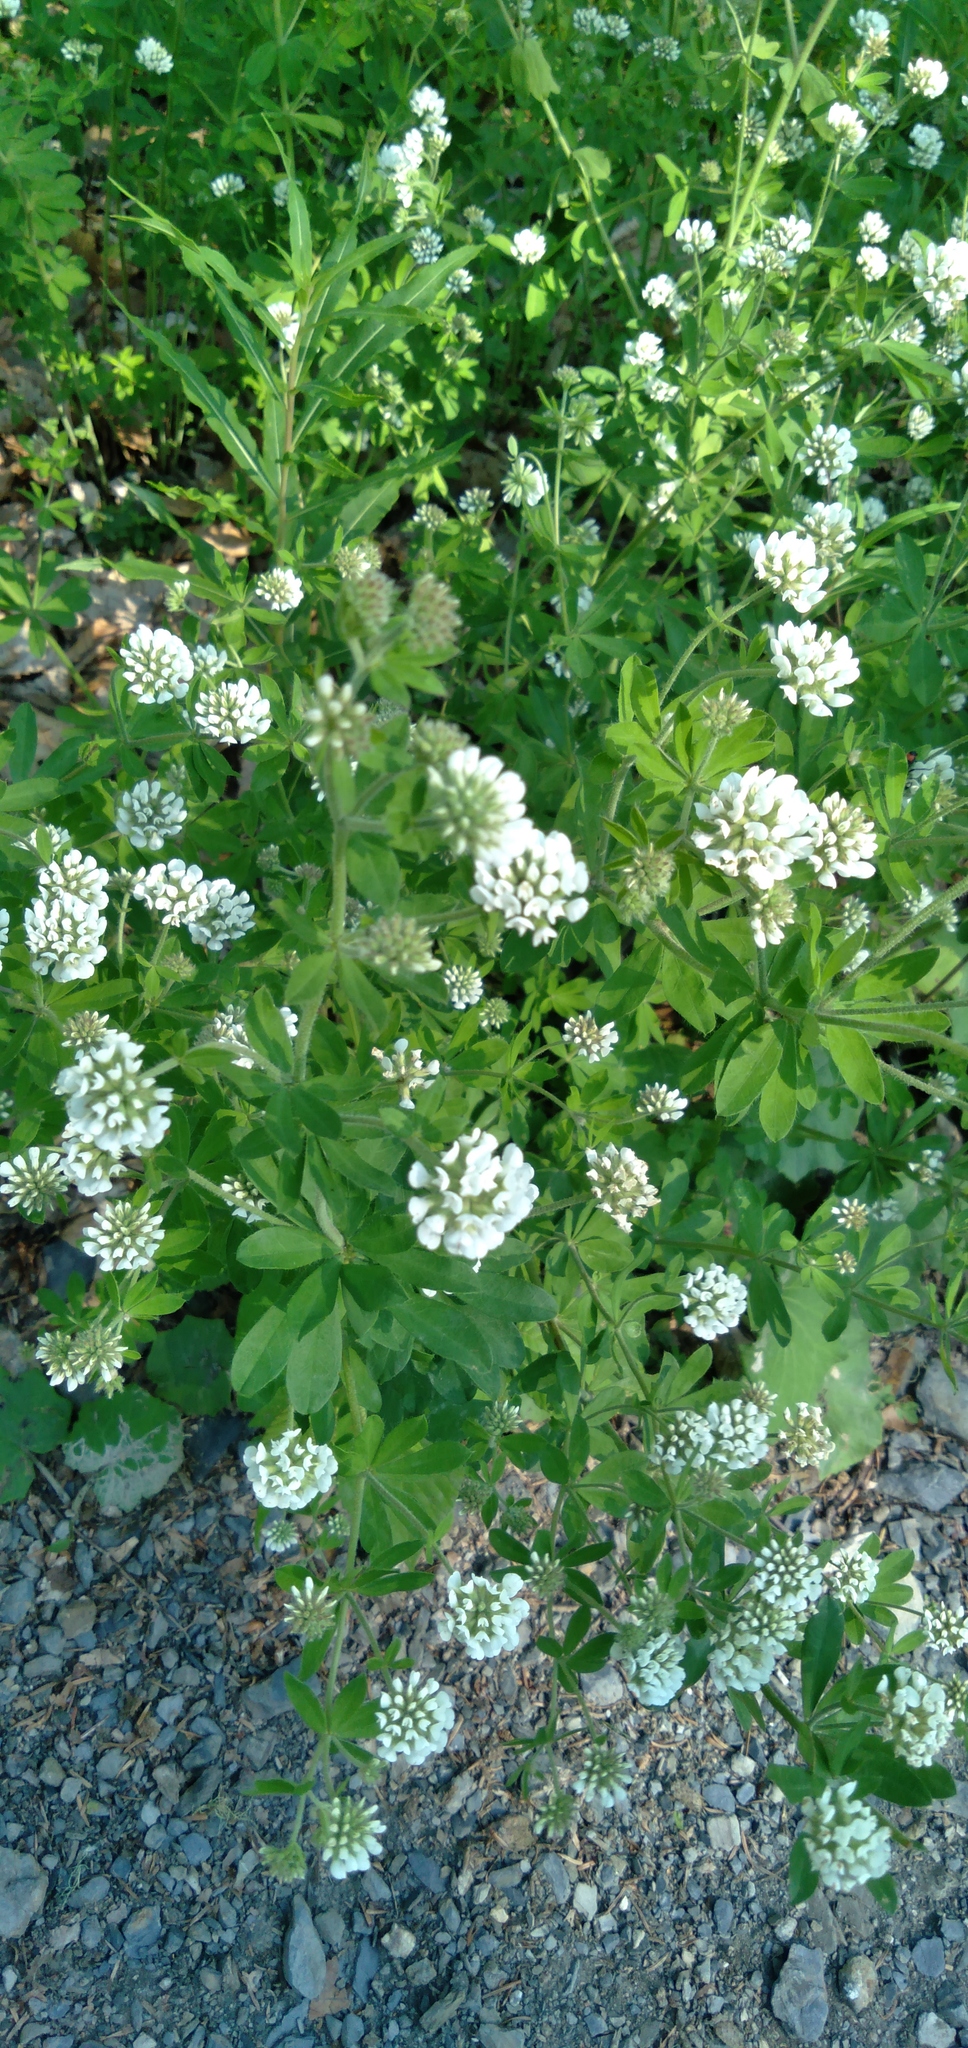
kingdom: Plantae
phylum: Tracheophyta
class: Magnoliopsida
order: Fabales
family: Fabaceae
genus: Lotus
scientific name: Lotus herbaceus
